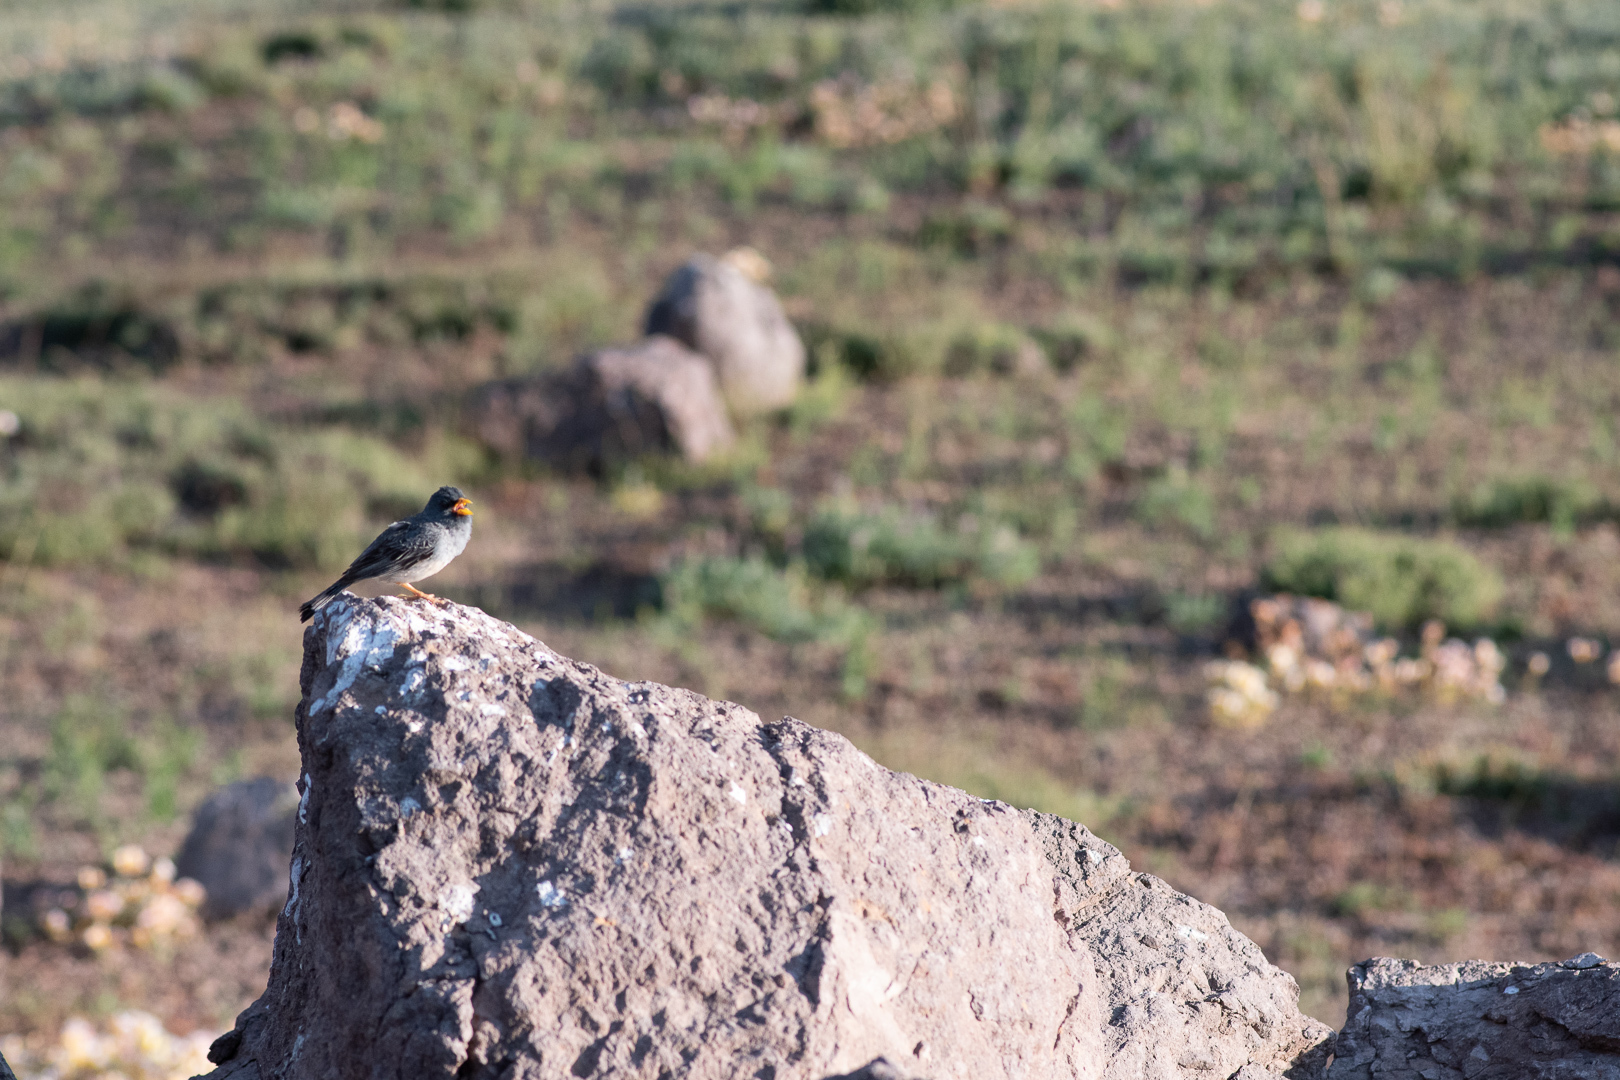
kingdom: Animalia
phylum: Chordata
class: Aves
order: Passeriformes
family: Thraupidae
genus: Porphyrospiza
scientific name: Porphyrospiza alaudina
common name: Band-tailed sierra finch
